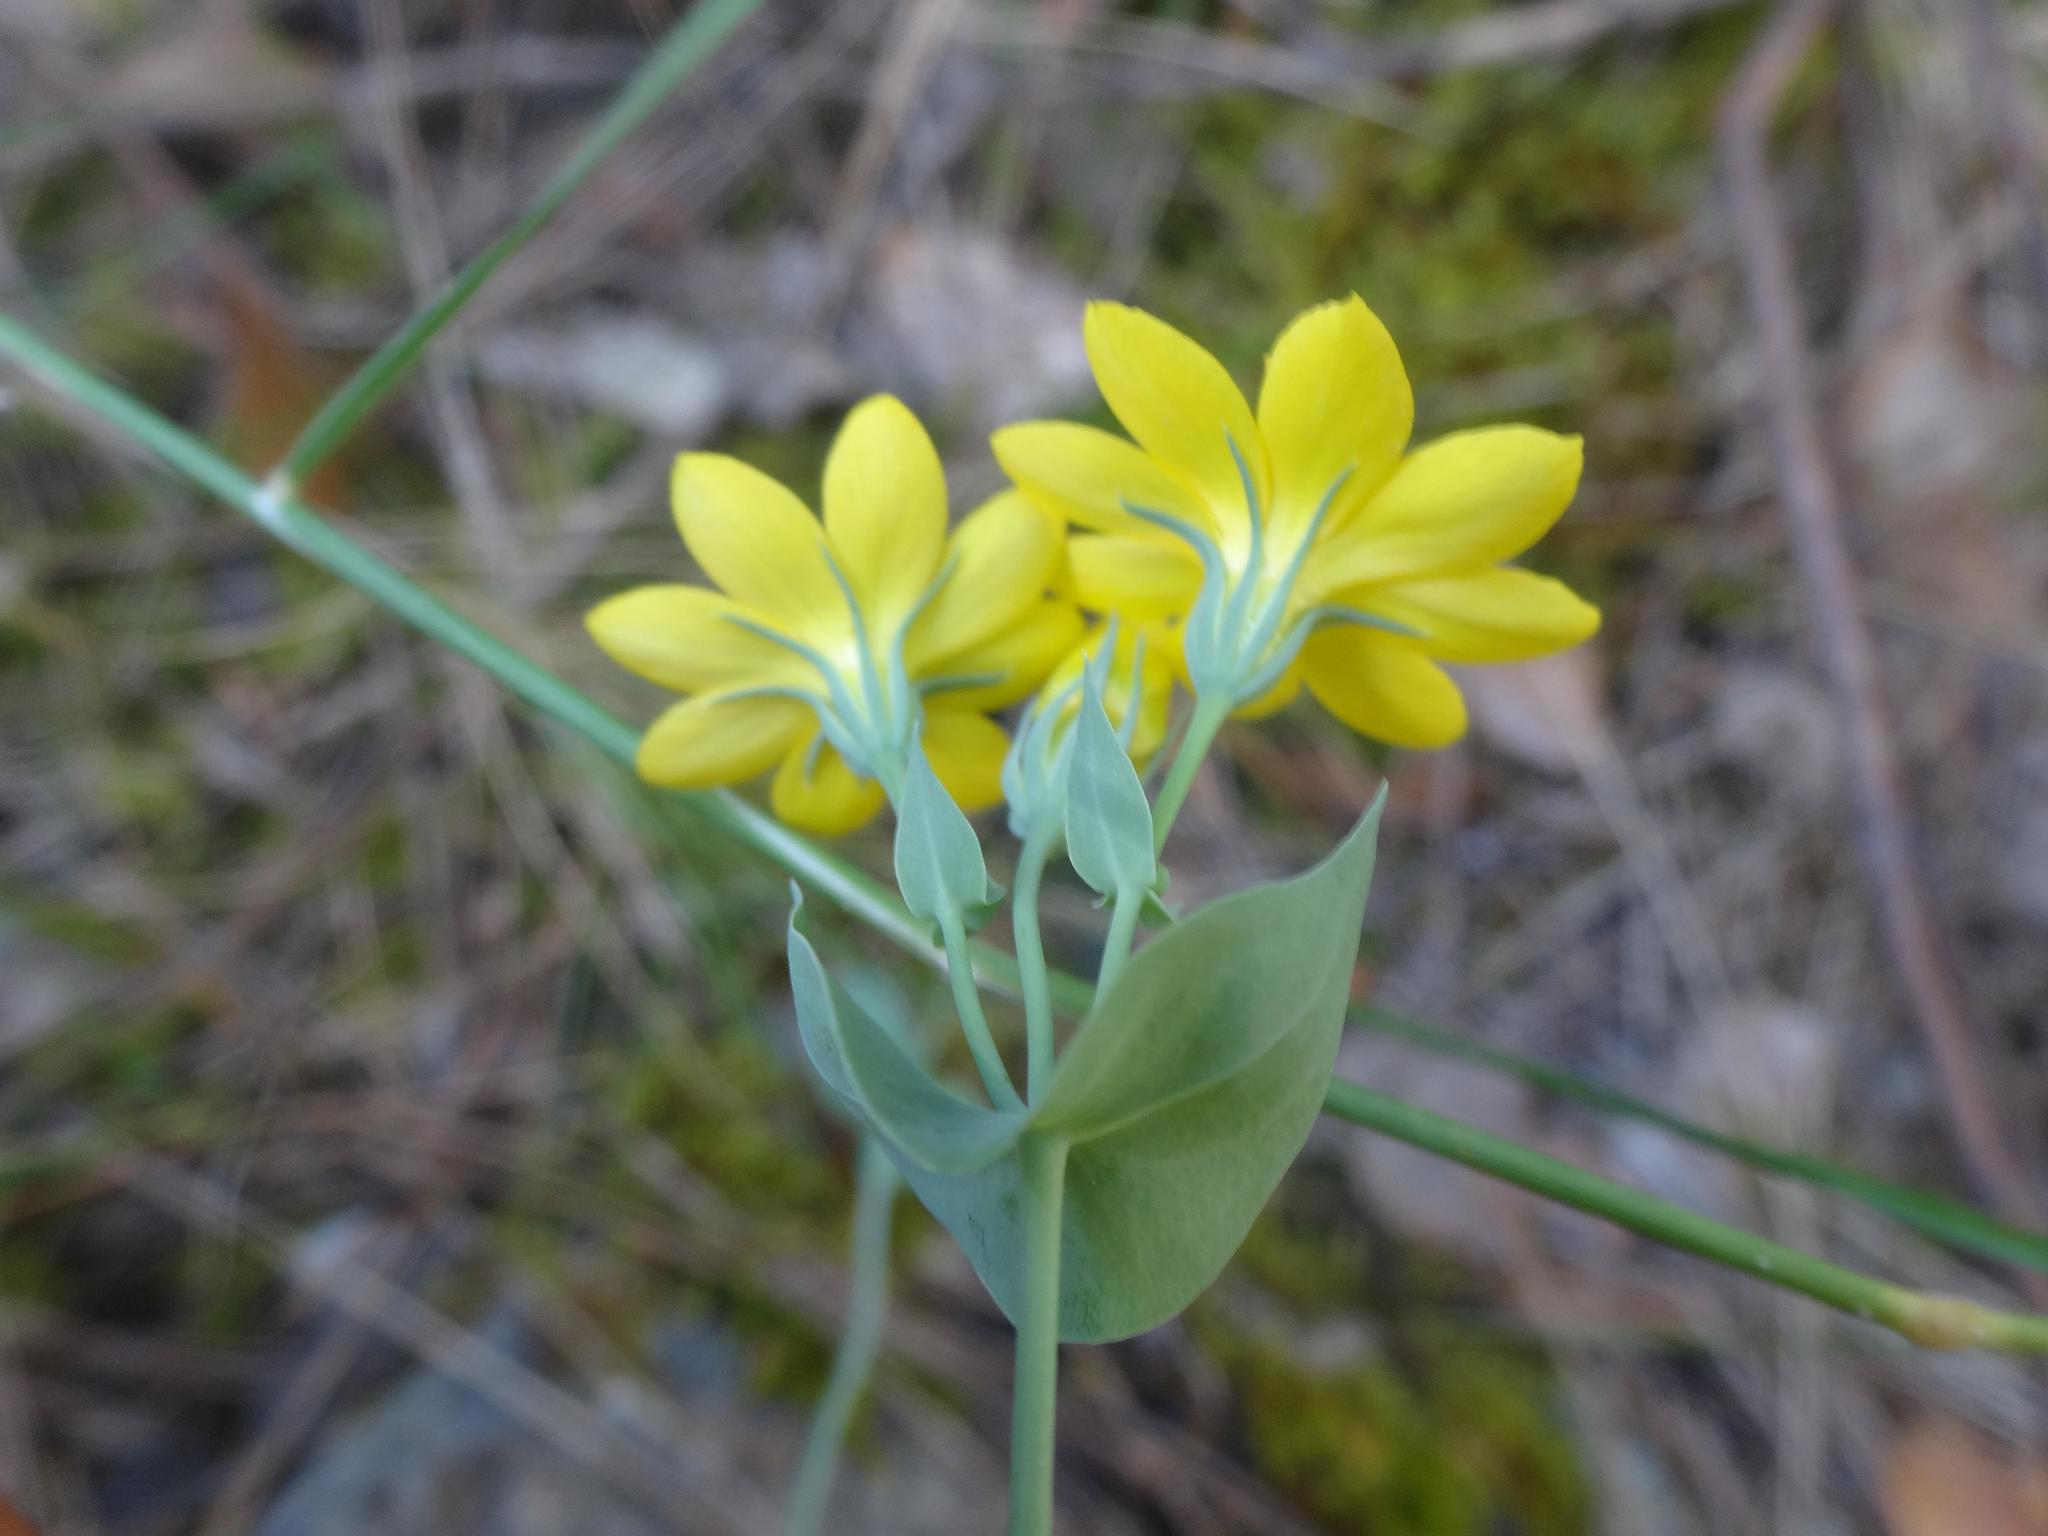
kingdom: Plantae
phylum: Tracheophyta
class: Magnoliopsida
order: Gentianales
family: Gentianaceae
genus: Blackstonia
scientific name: Blackstonia perfoliata
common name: Yellow-wort
